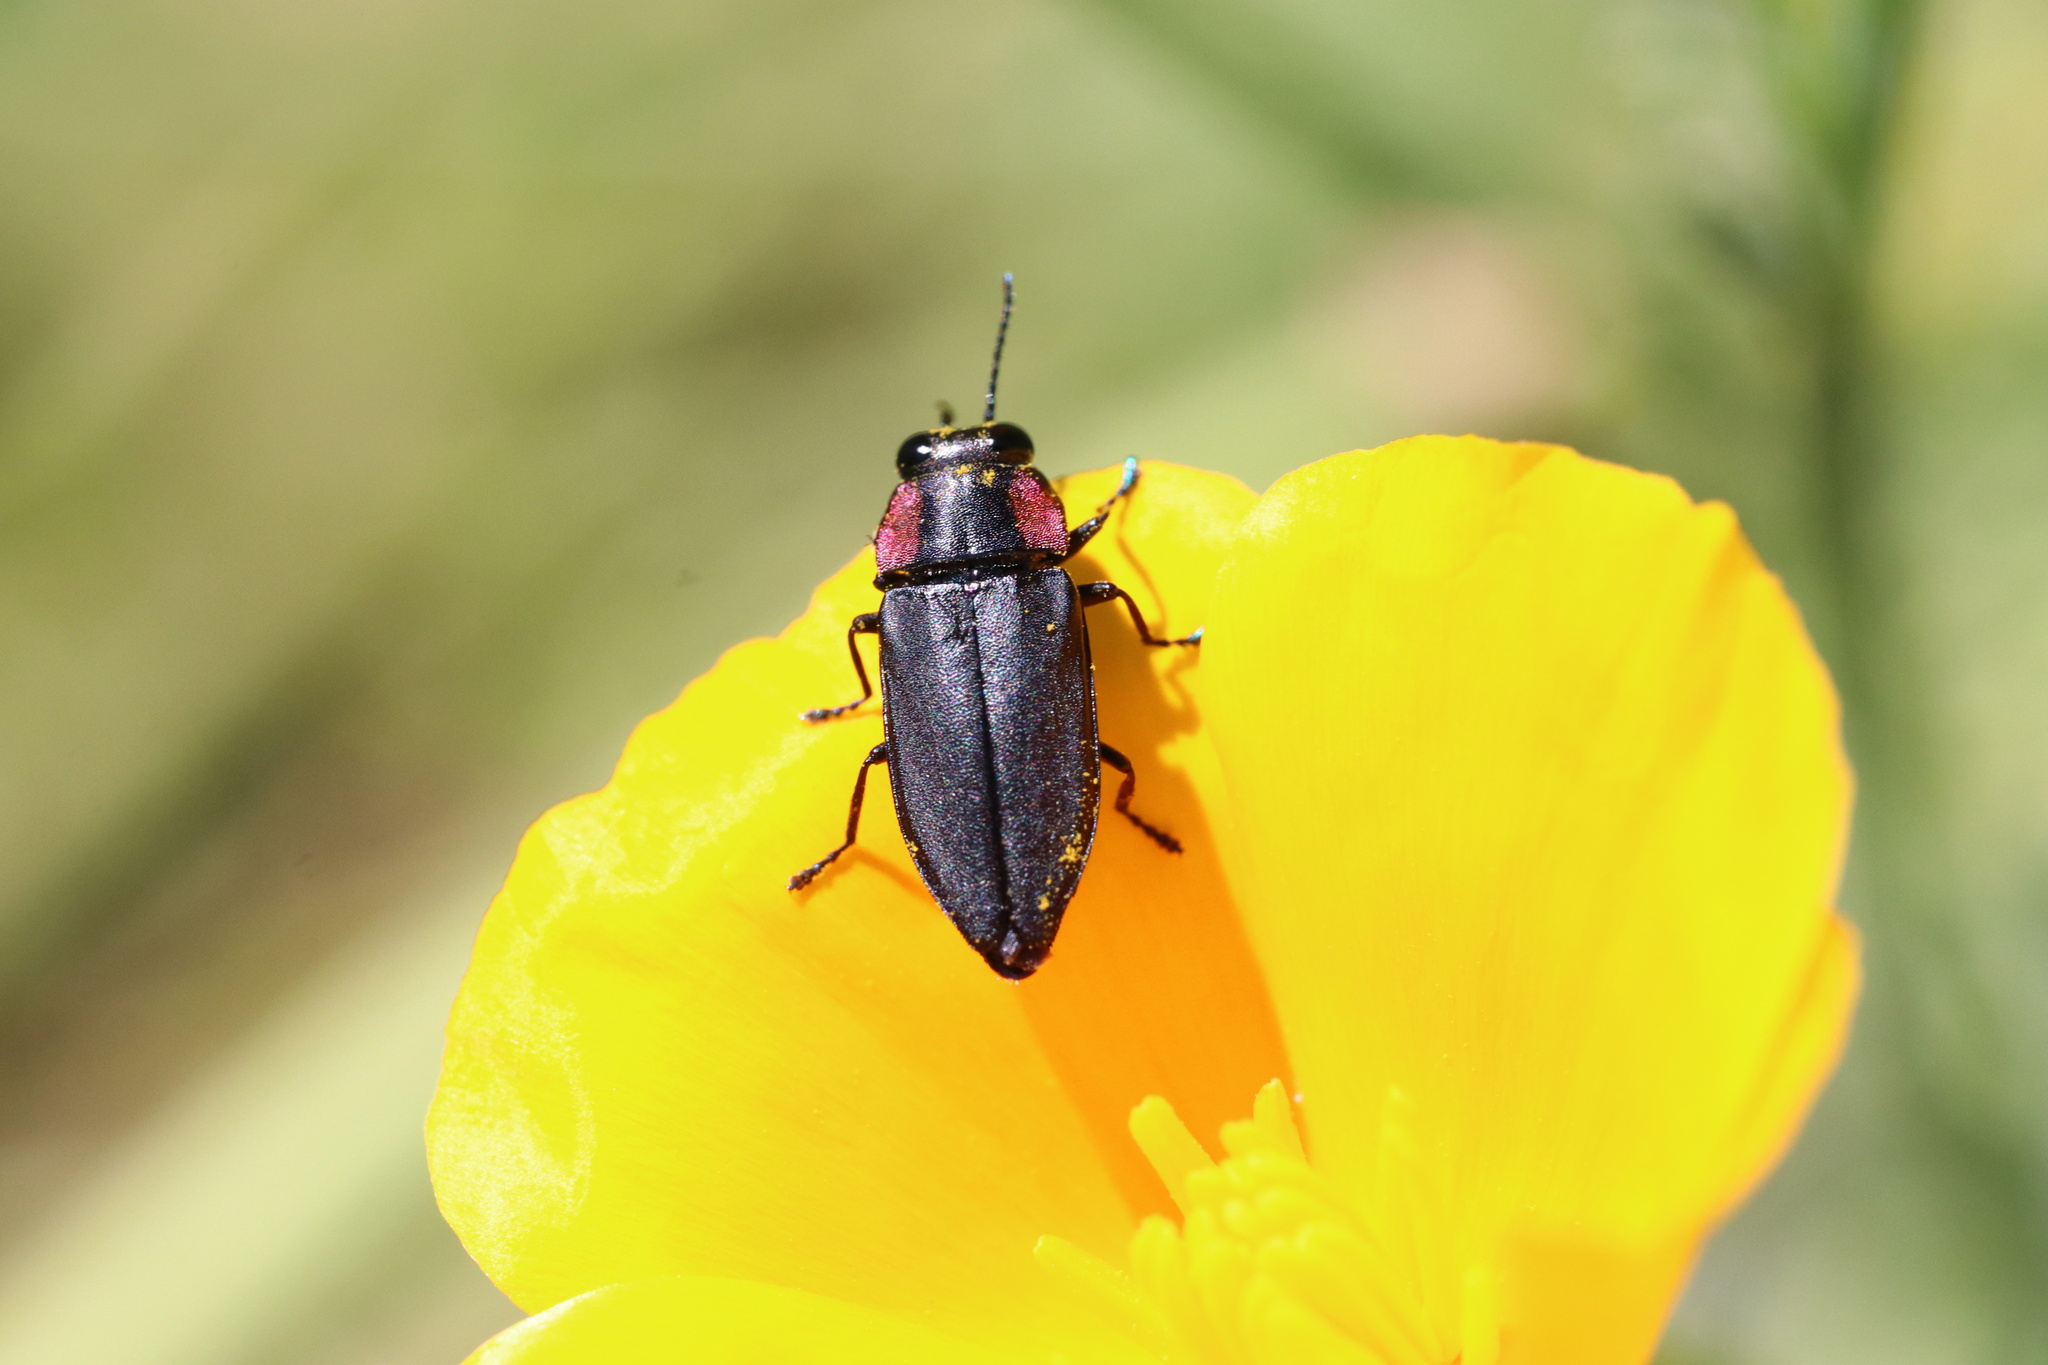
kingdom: Animalia
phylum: Arthropoda
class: Insecta
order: Coleoptera
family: Buprestidae
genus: Romanophora
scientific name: Romanophora verecunda
